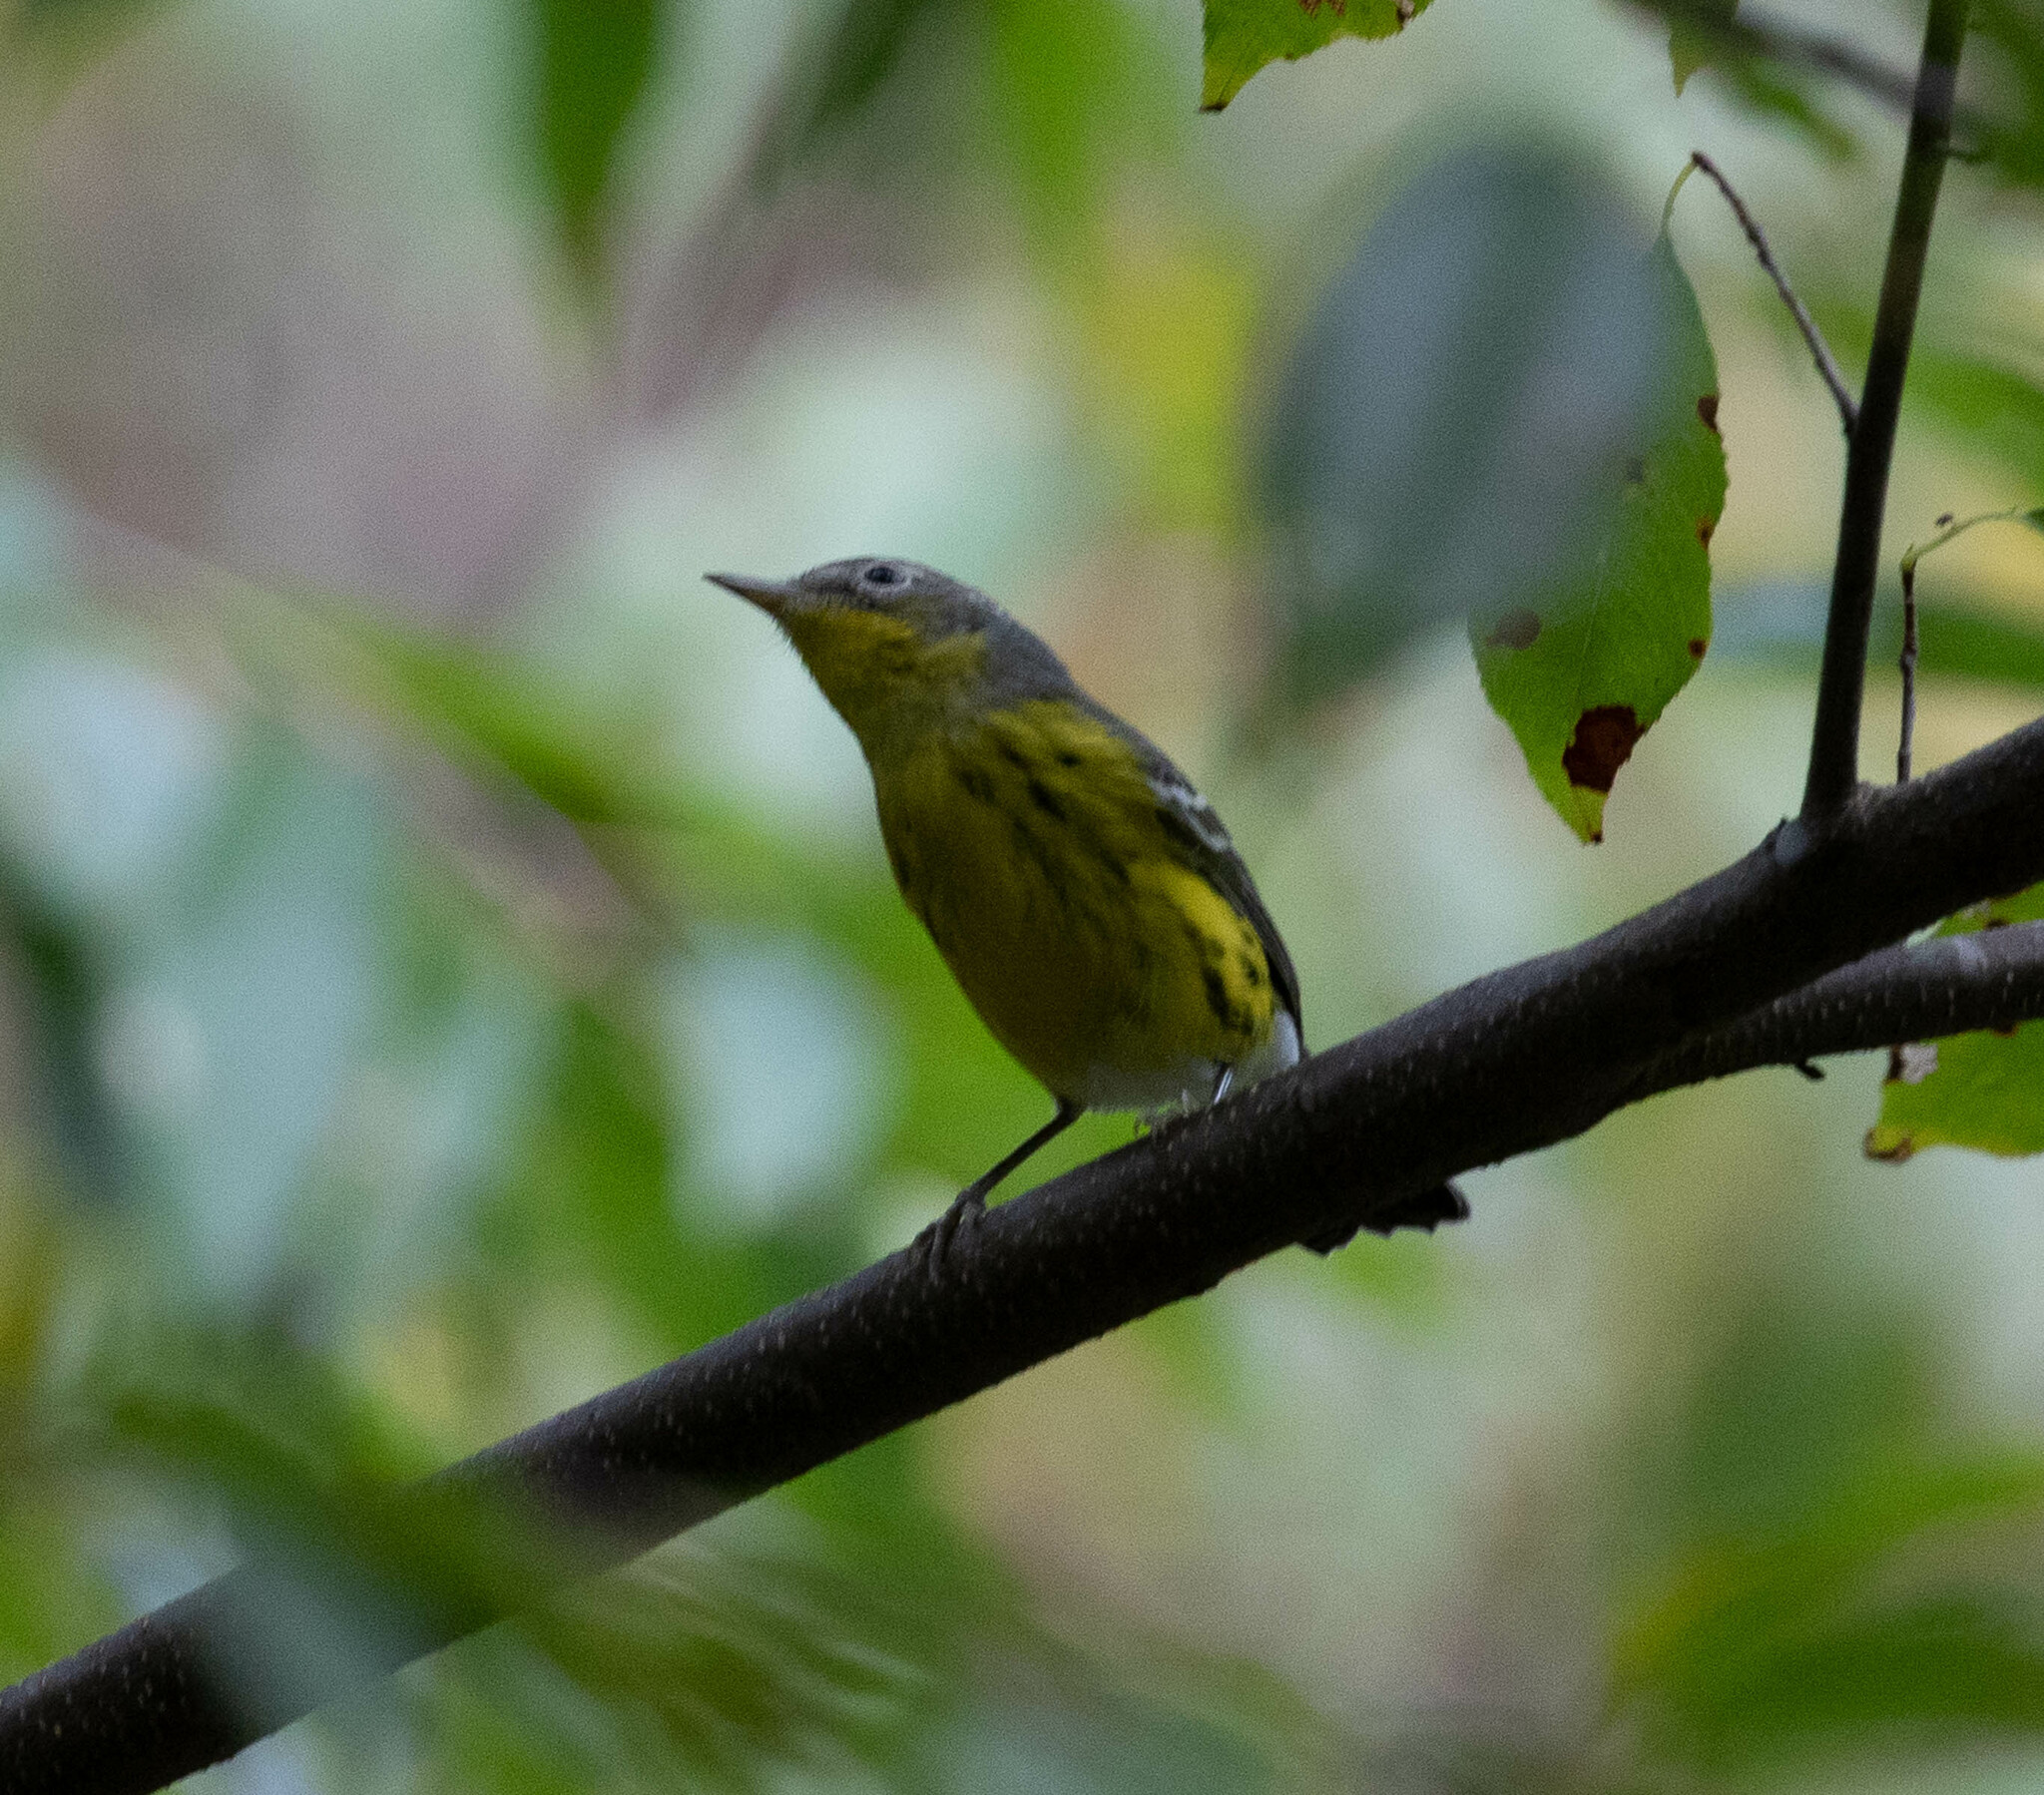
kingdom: Animalia
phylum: Chordata
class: Aves
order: Passeriformes
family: Parulidae
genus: Setophaga
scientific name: Setophaga magnolia
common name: Magnolia warbler
